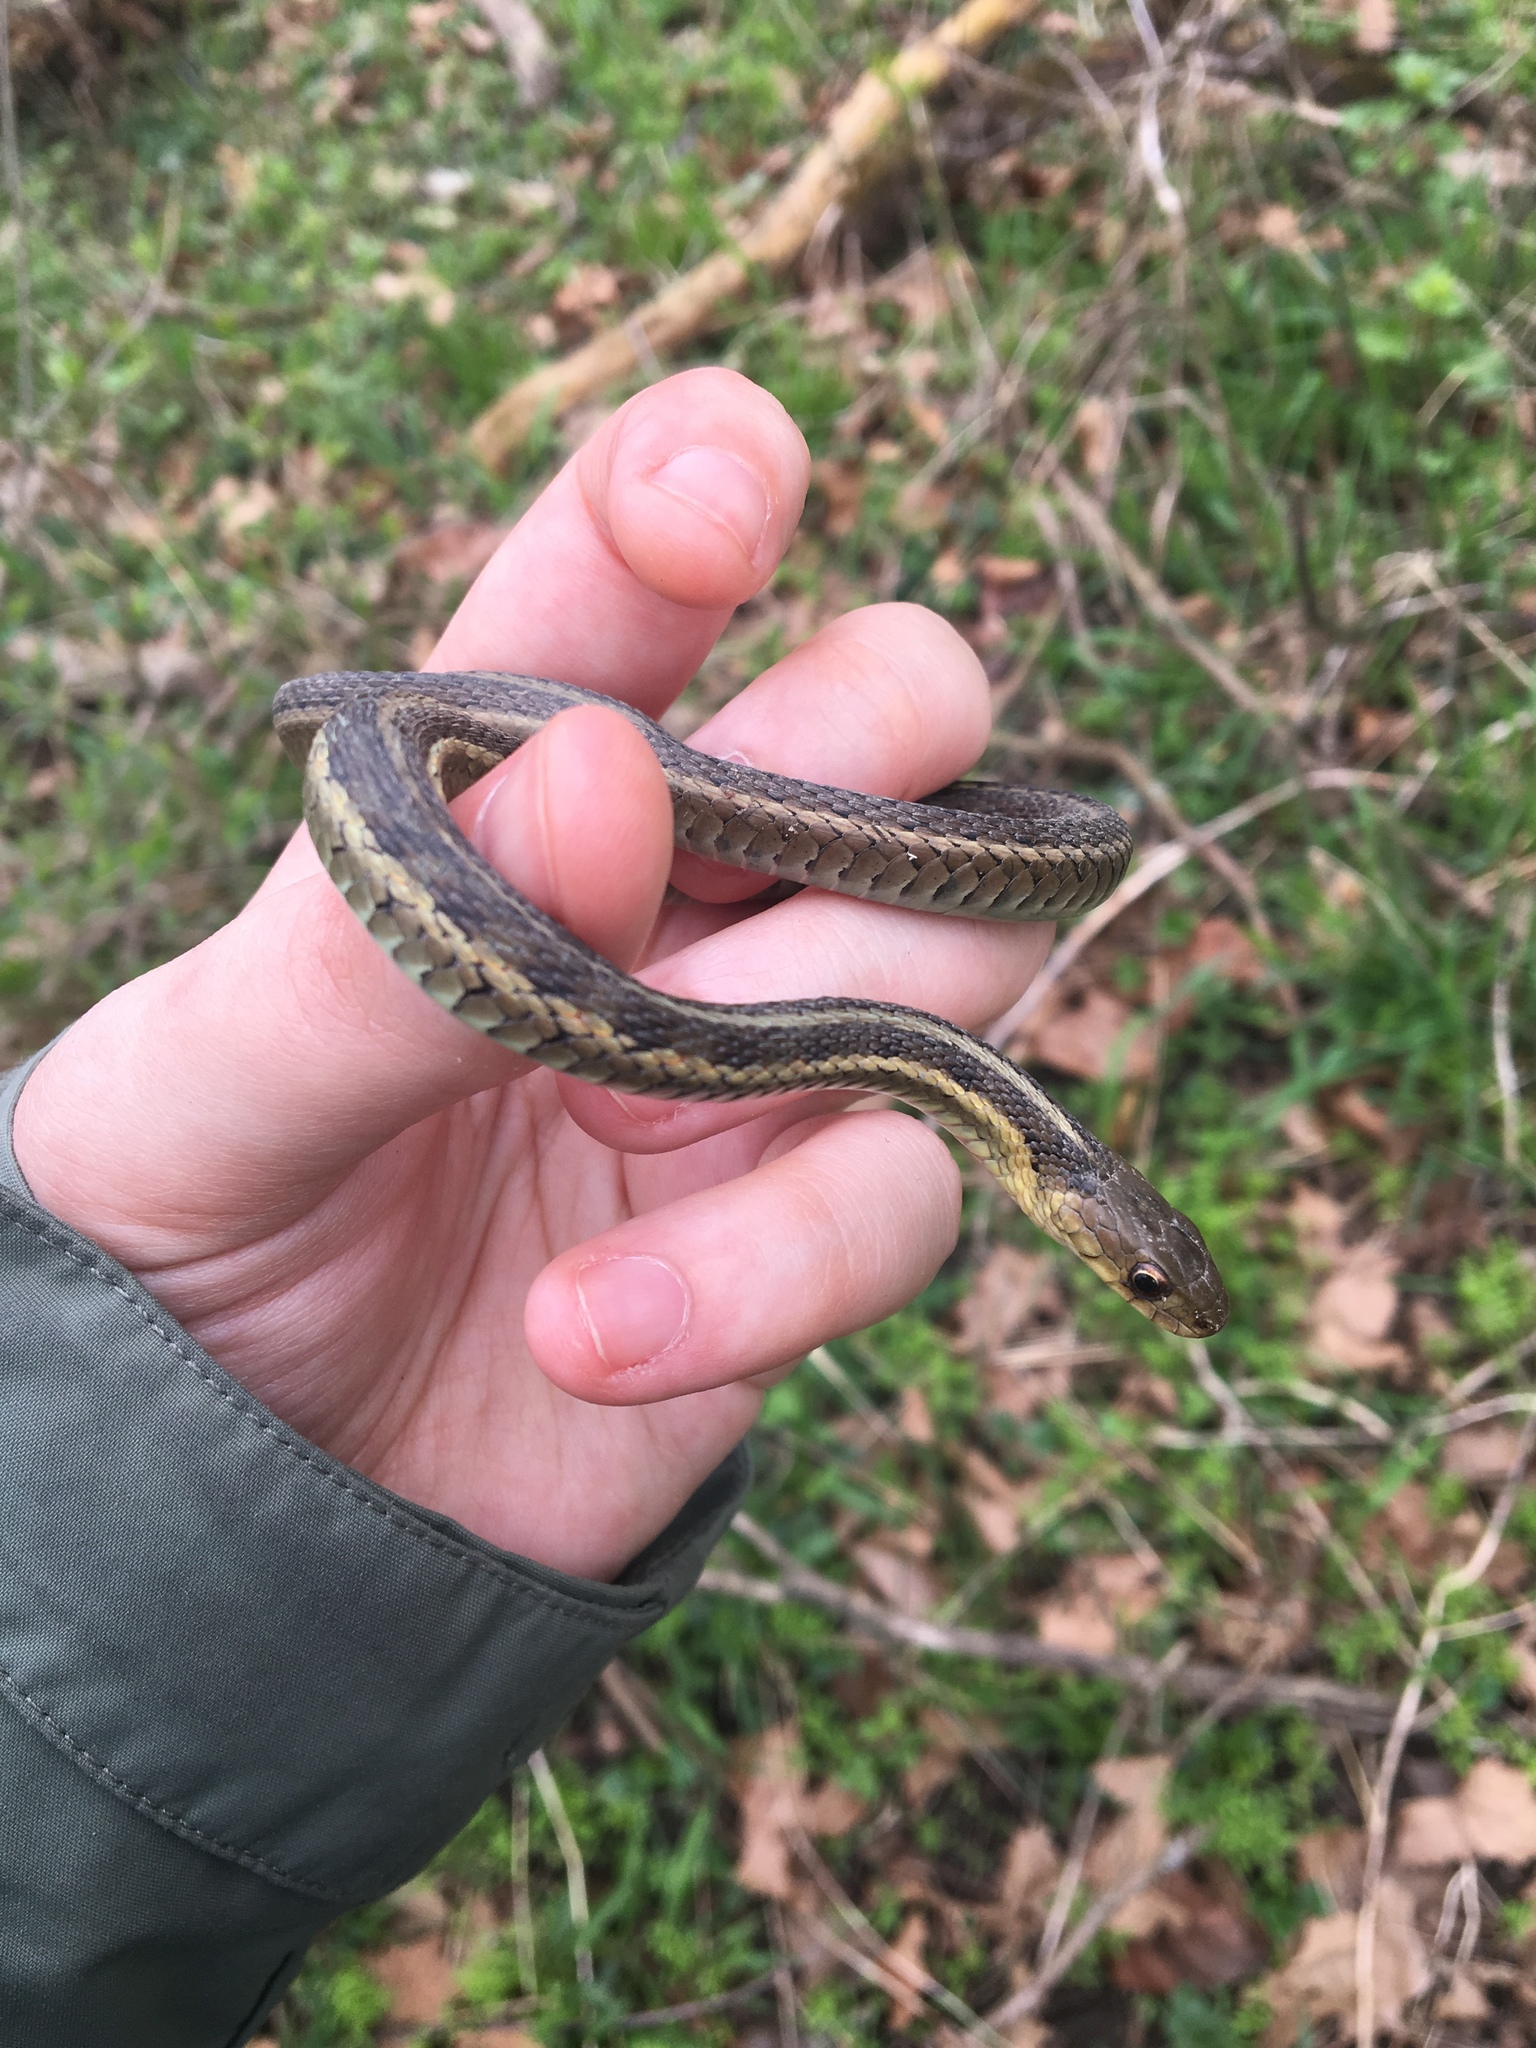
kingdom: Animalia
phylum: Chordata
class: Squamata
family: Colubridae
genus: Thamnophis
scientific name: Thamnophis sirtalis
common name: Common garter snake
